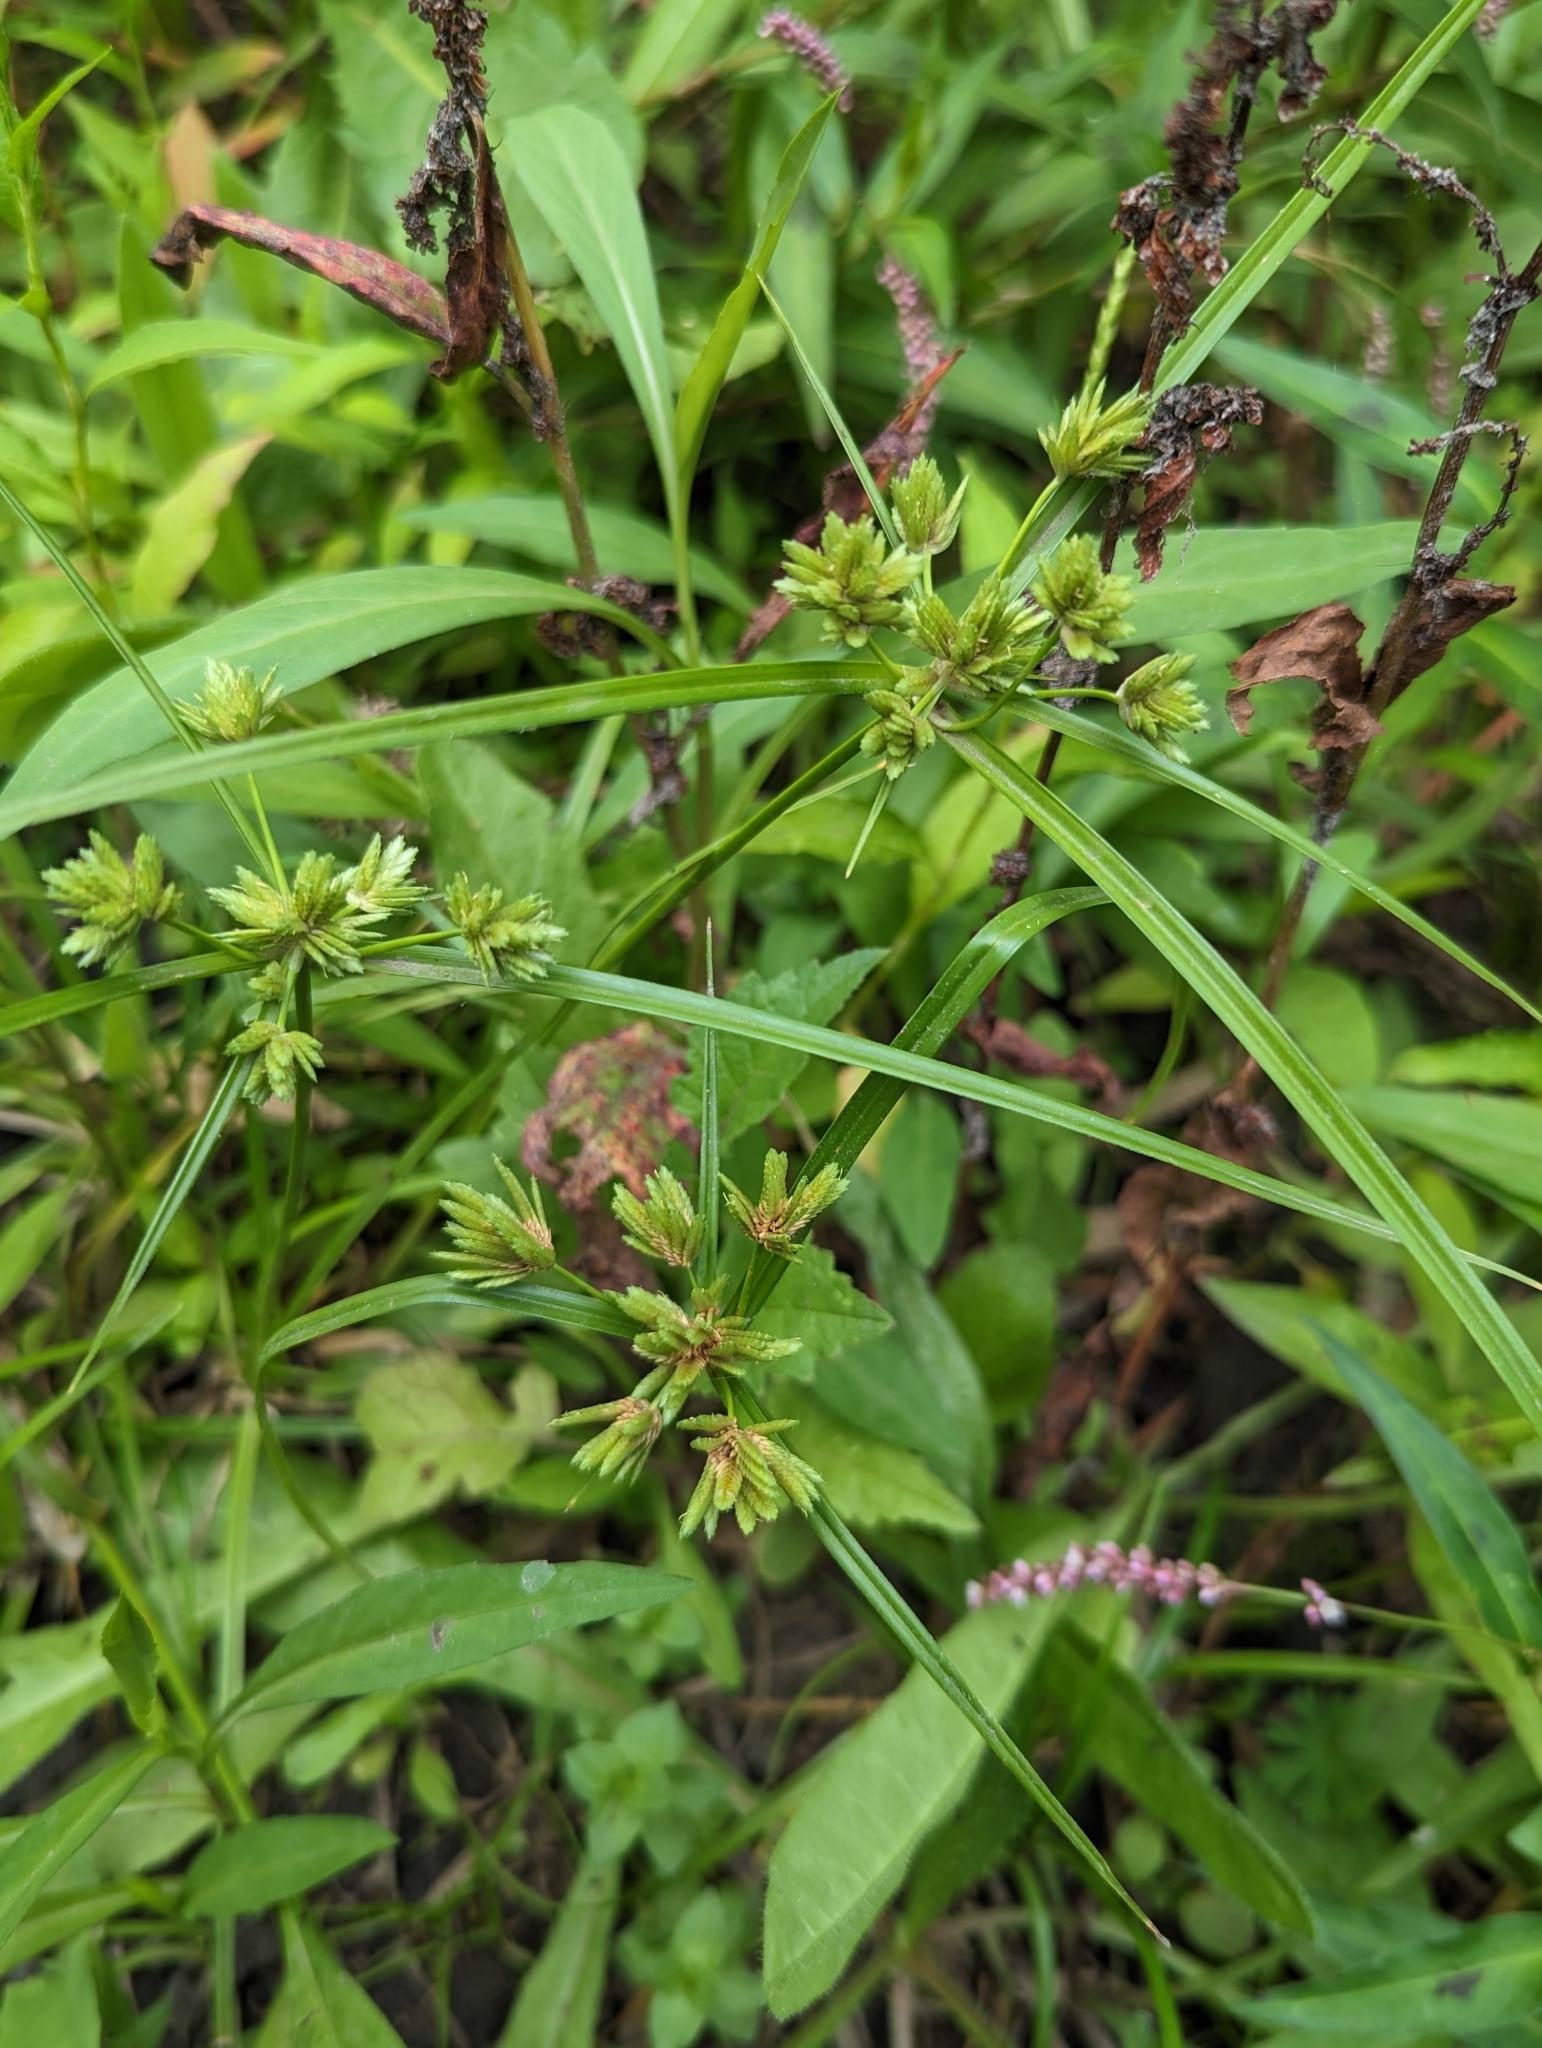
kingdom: Plantae
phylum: Tracheophyta
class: Liliopsida
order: Poales
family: Cyperaceae
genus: Cyperus
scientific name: Cyperus eragrostis
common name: Tall flatsedge
